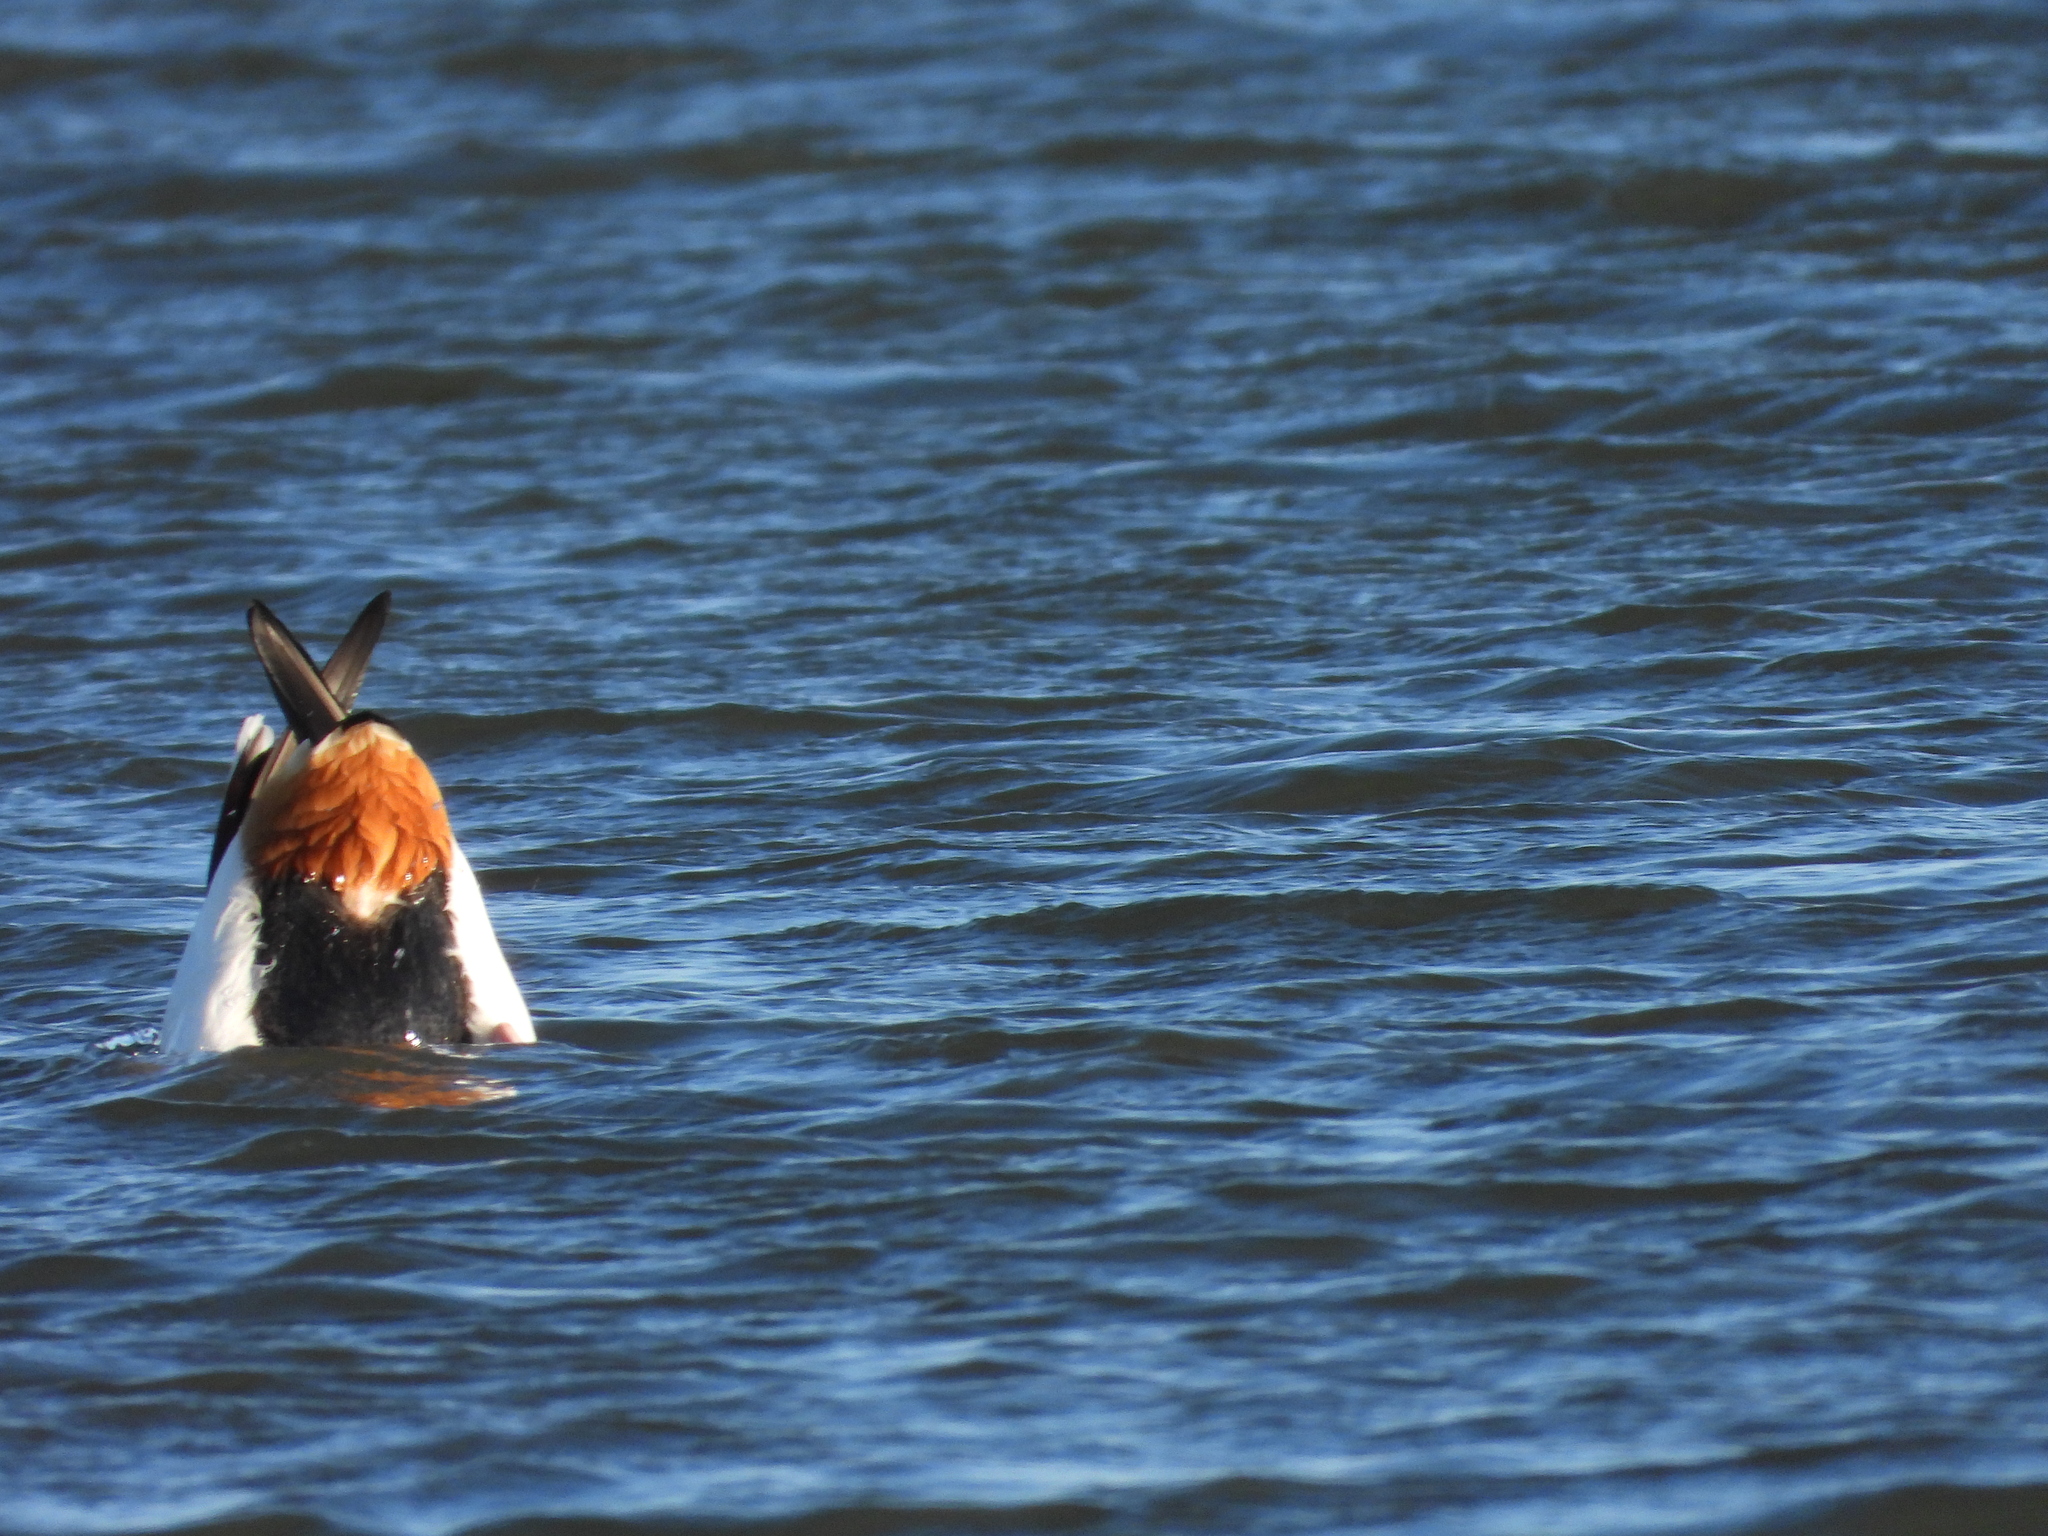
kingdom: Animalia
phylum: Chordata
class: Aves
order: Anseriformes
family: Anatidae
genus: Tadorna
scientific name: Tadorna tadorna
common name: Common shelduck
